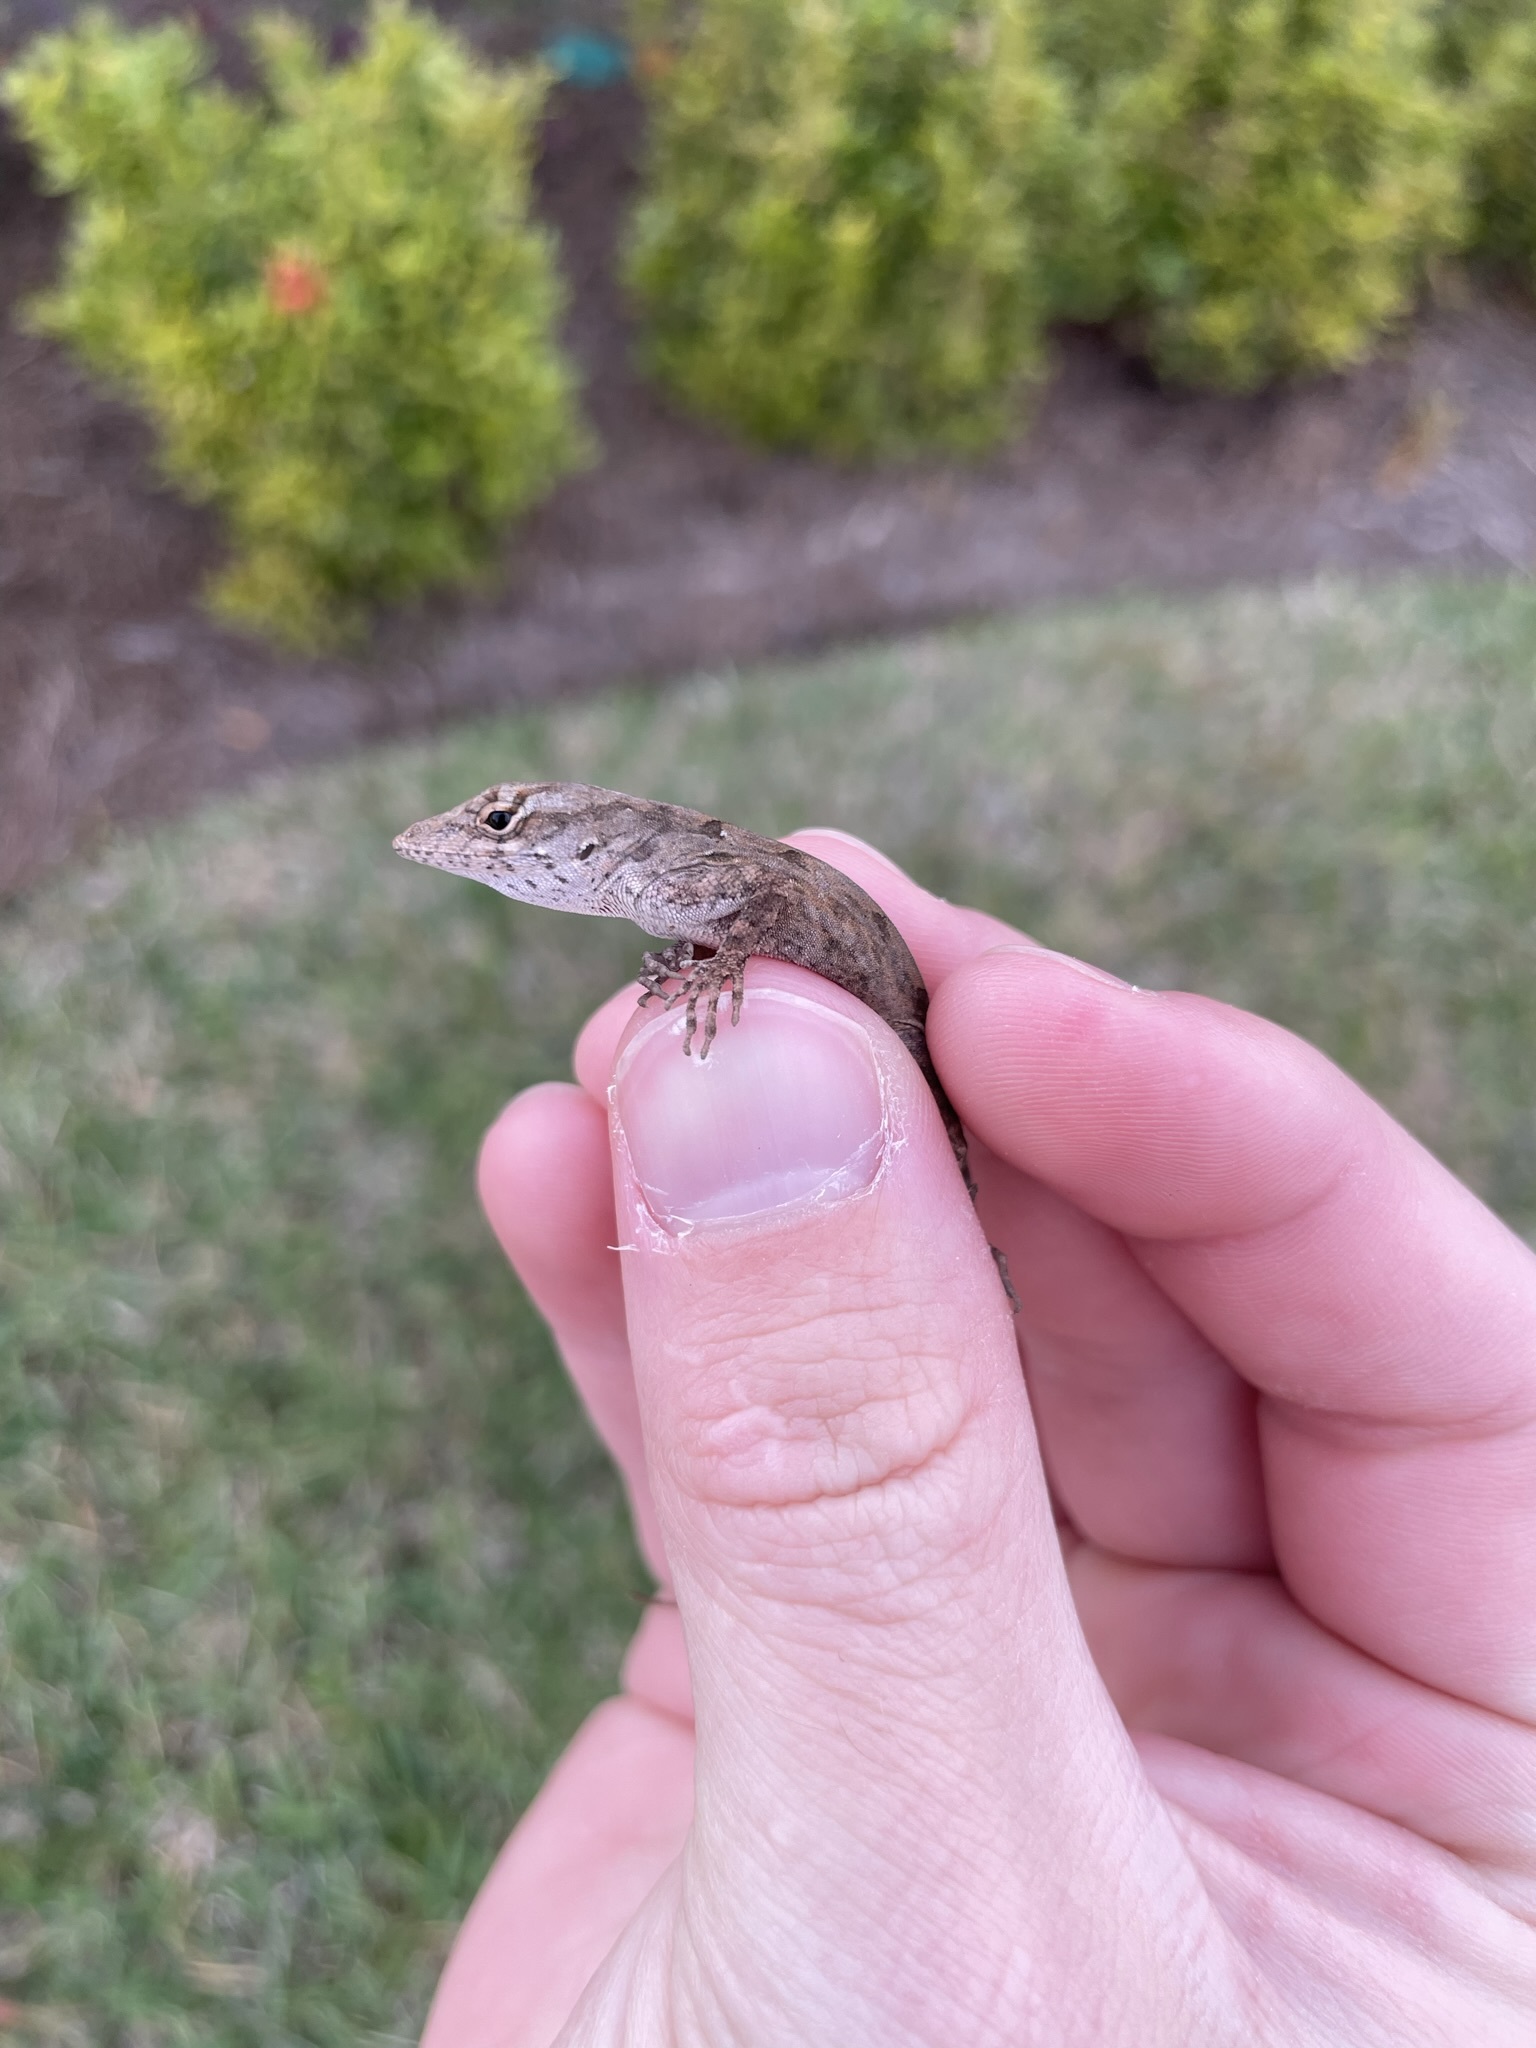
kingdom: Animalia
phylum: Chordata
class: Squamata
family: Dactyloidae
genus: Anolis
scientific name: Anolis sagrei
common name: Brown anole
